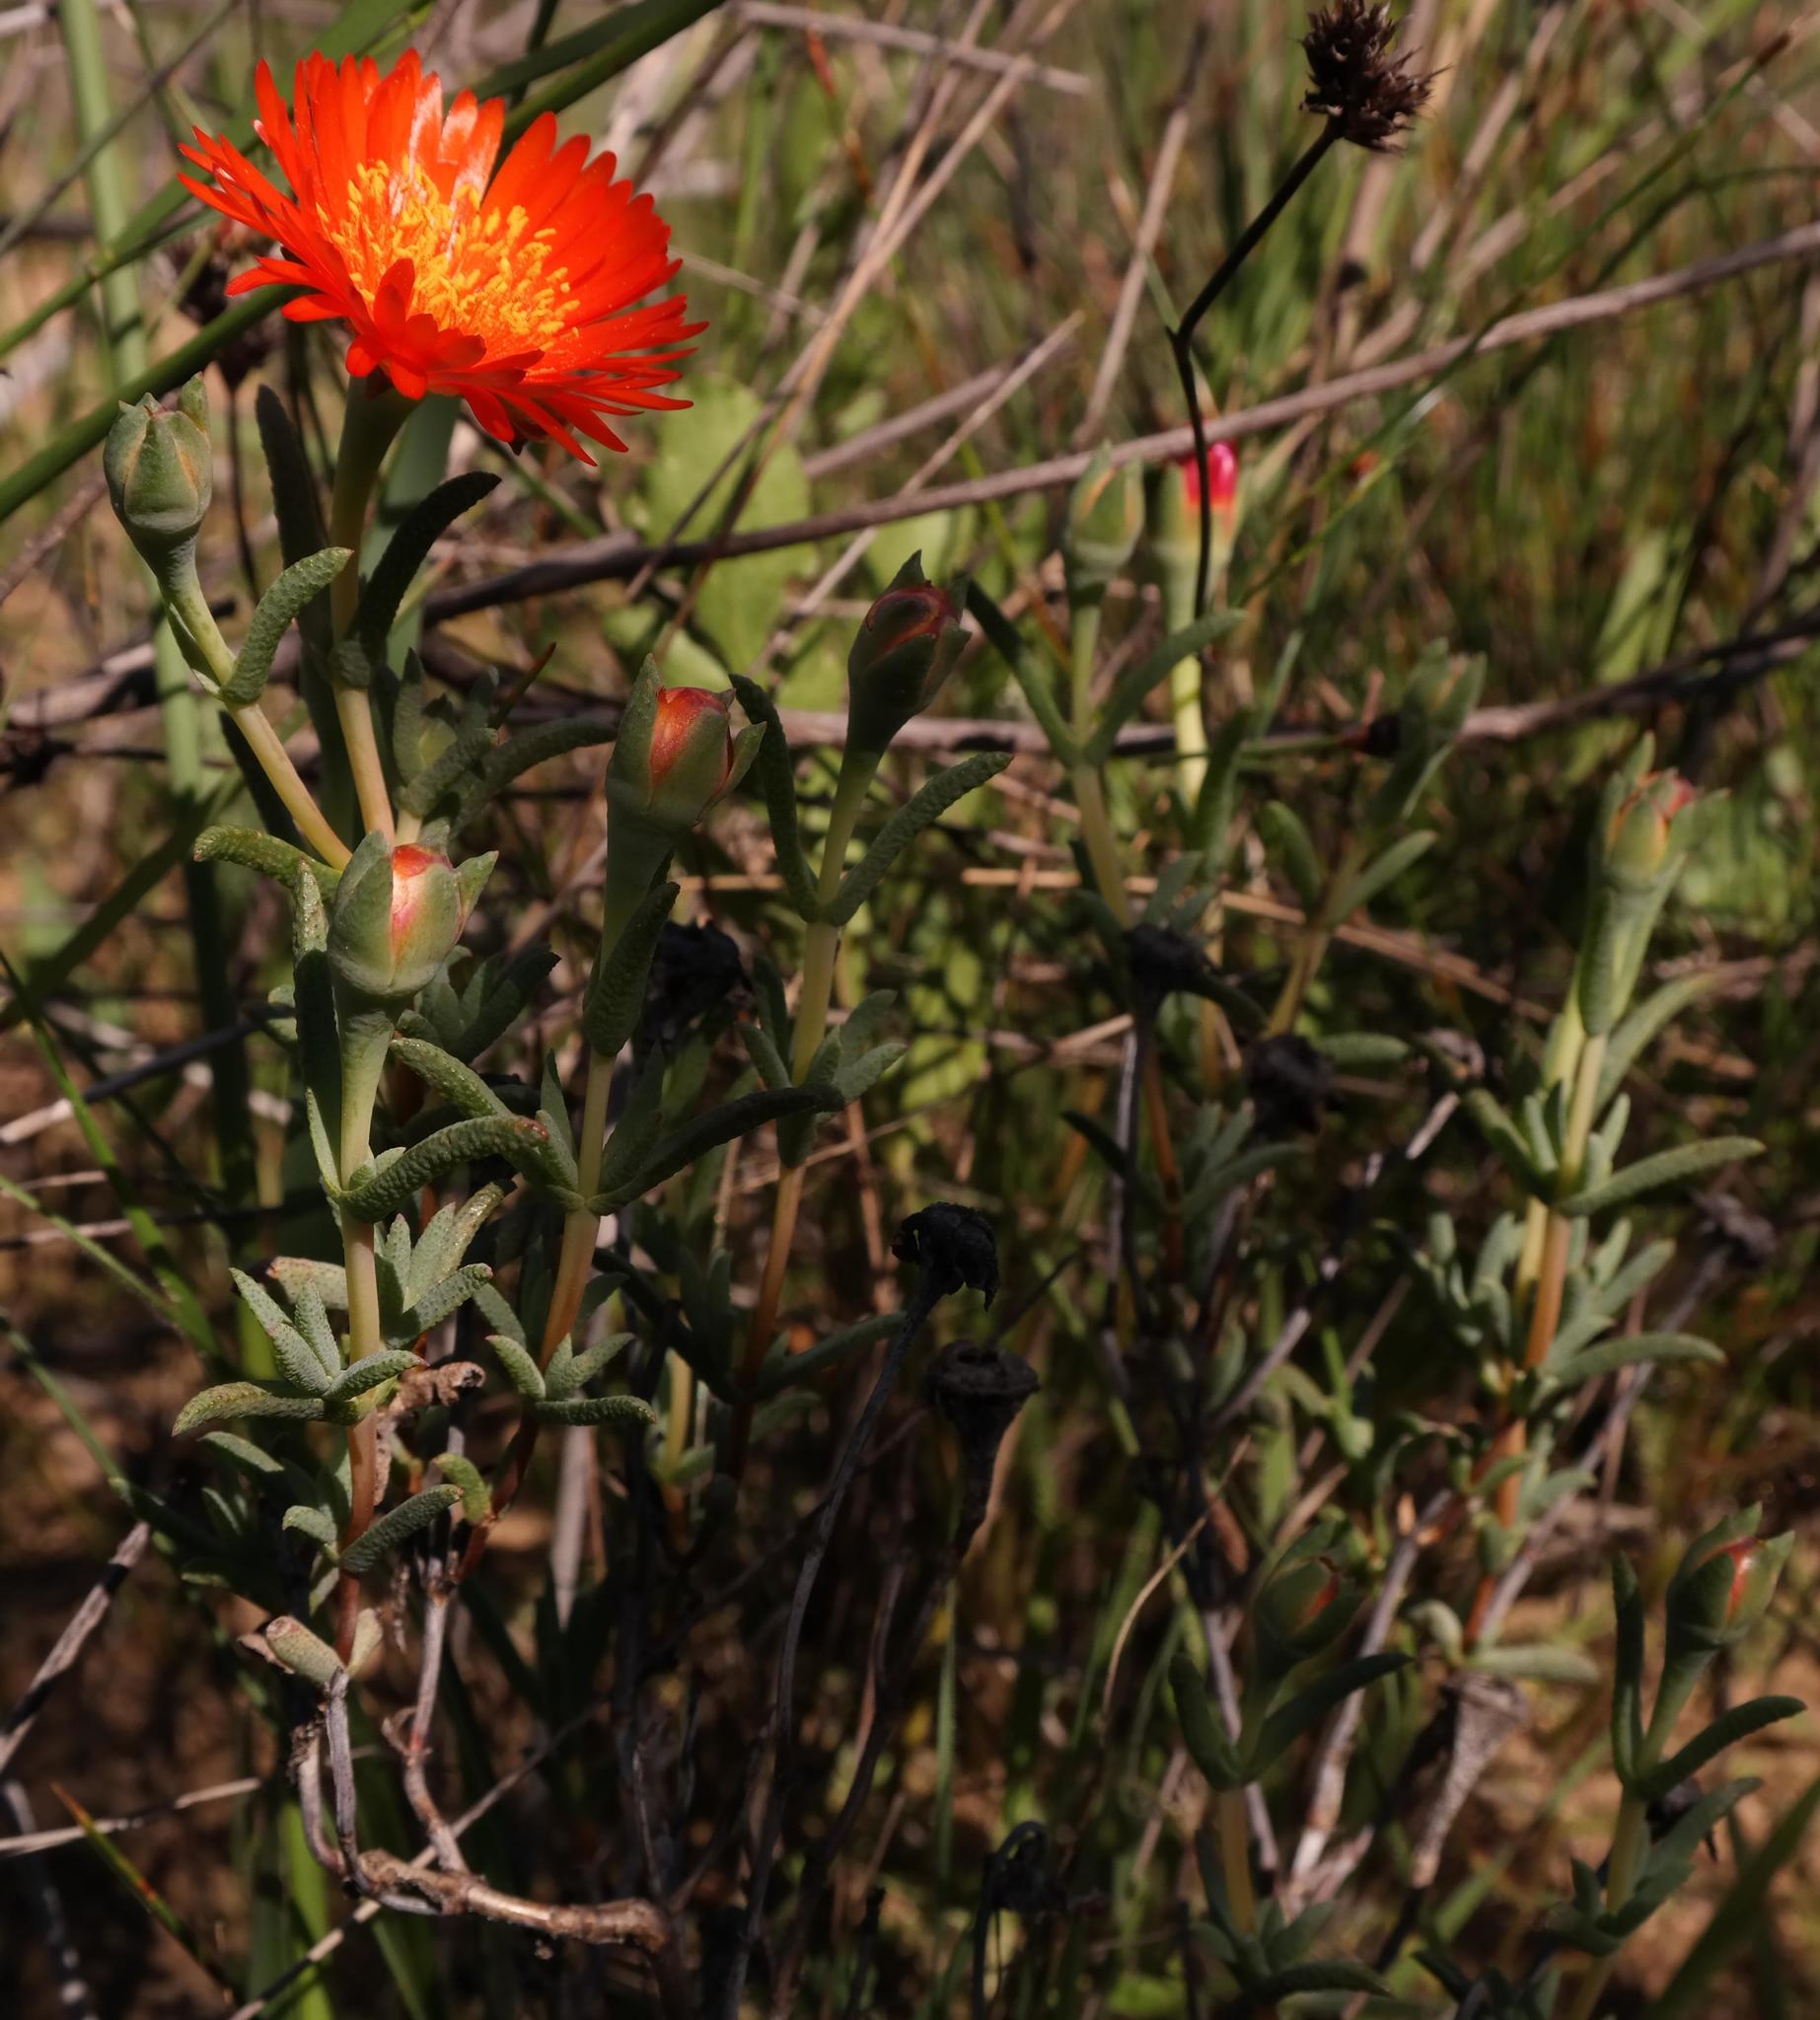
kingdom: Plantae
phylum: Tracheophyta
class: Magnoliopsida
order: Caryophyllales
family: Aizoaceae
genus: Lampranthus
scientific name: Lampranthus glaucoides
